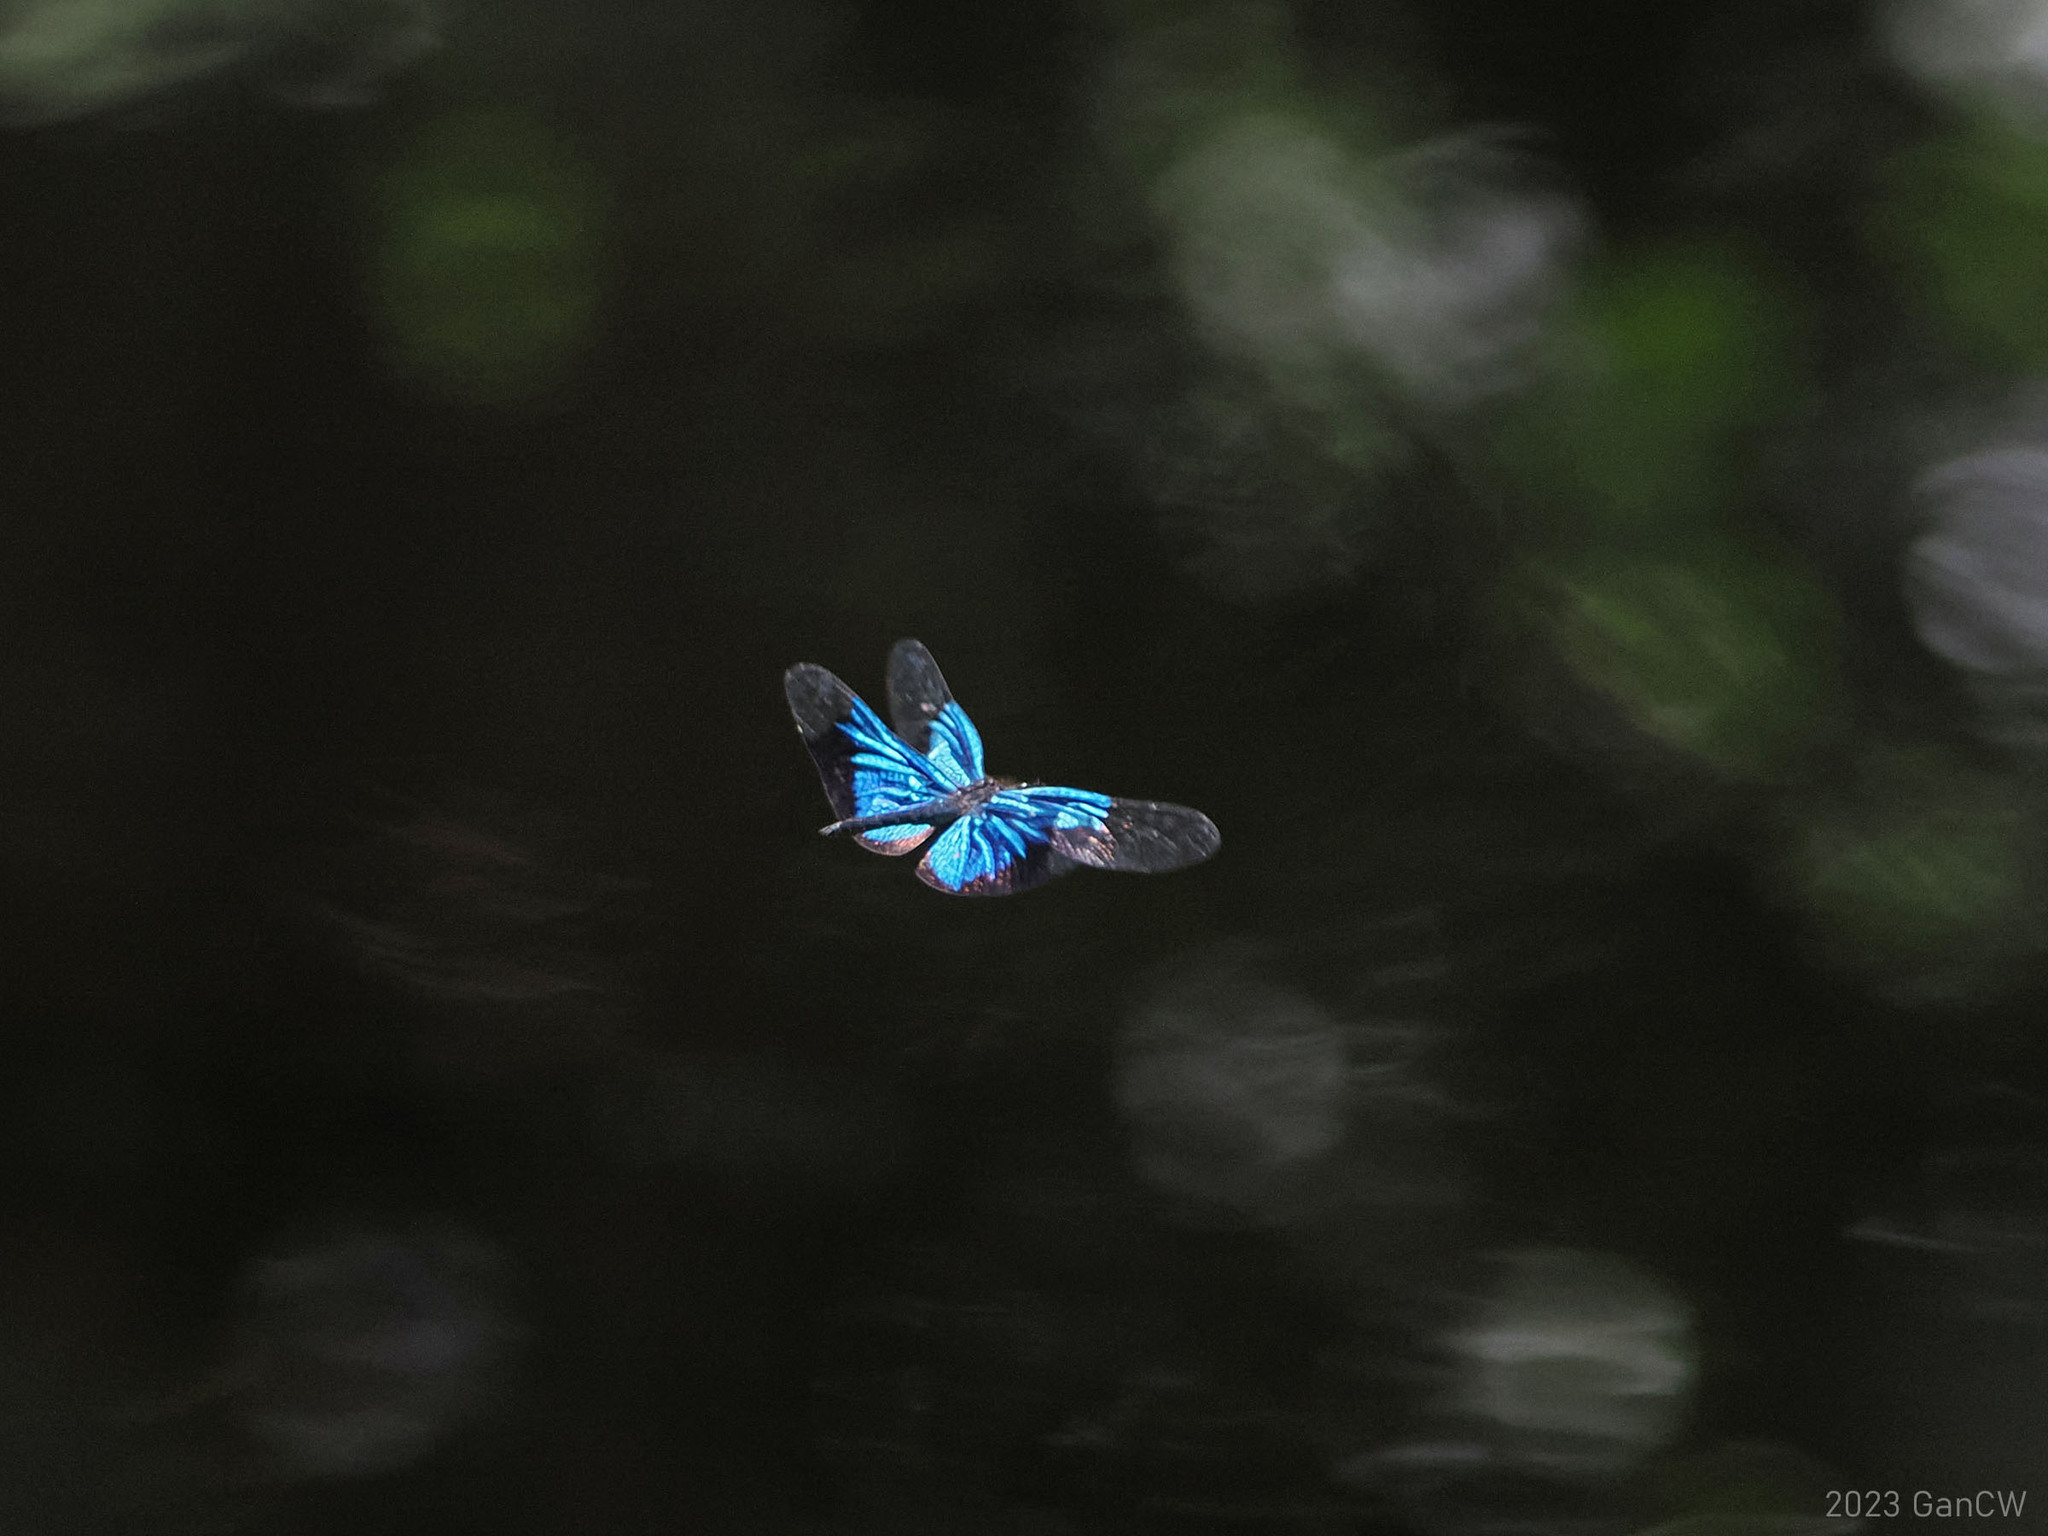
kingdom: Animalia
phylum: Arthropoda
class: Insecta
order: Odonata
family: Libellulidae
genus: Rhyothemis
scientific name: Rhyothemis resplendens
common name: Jewel flutterer
